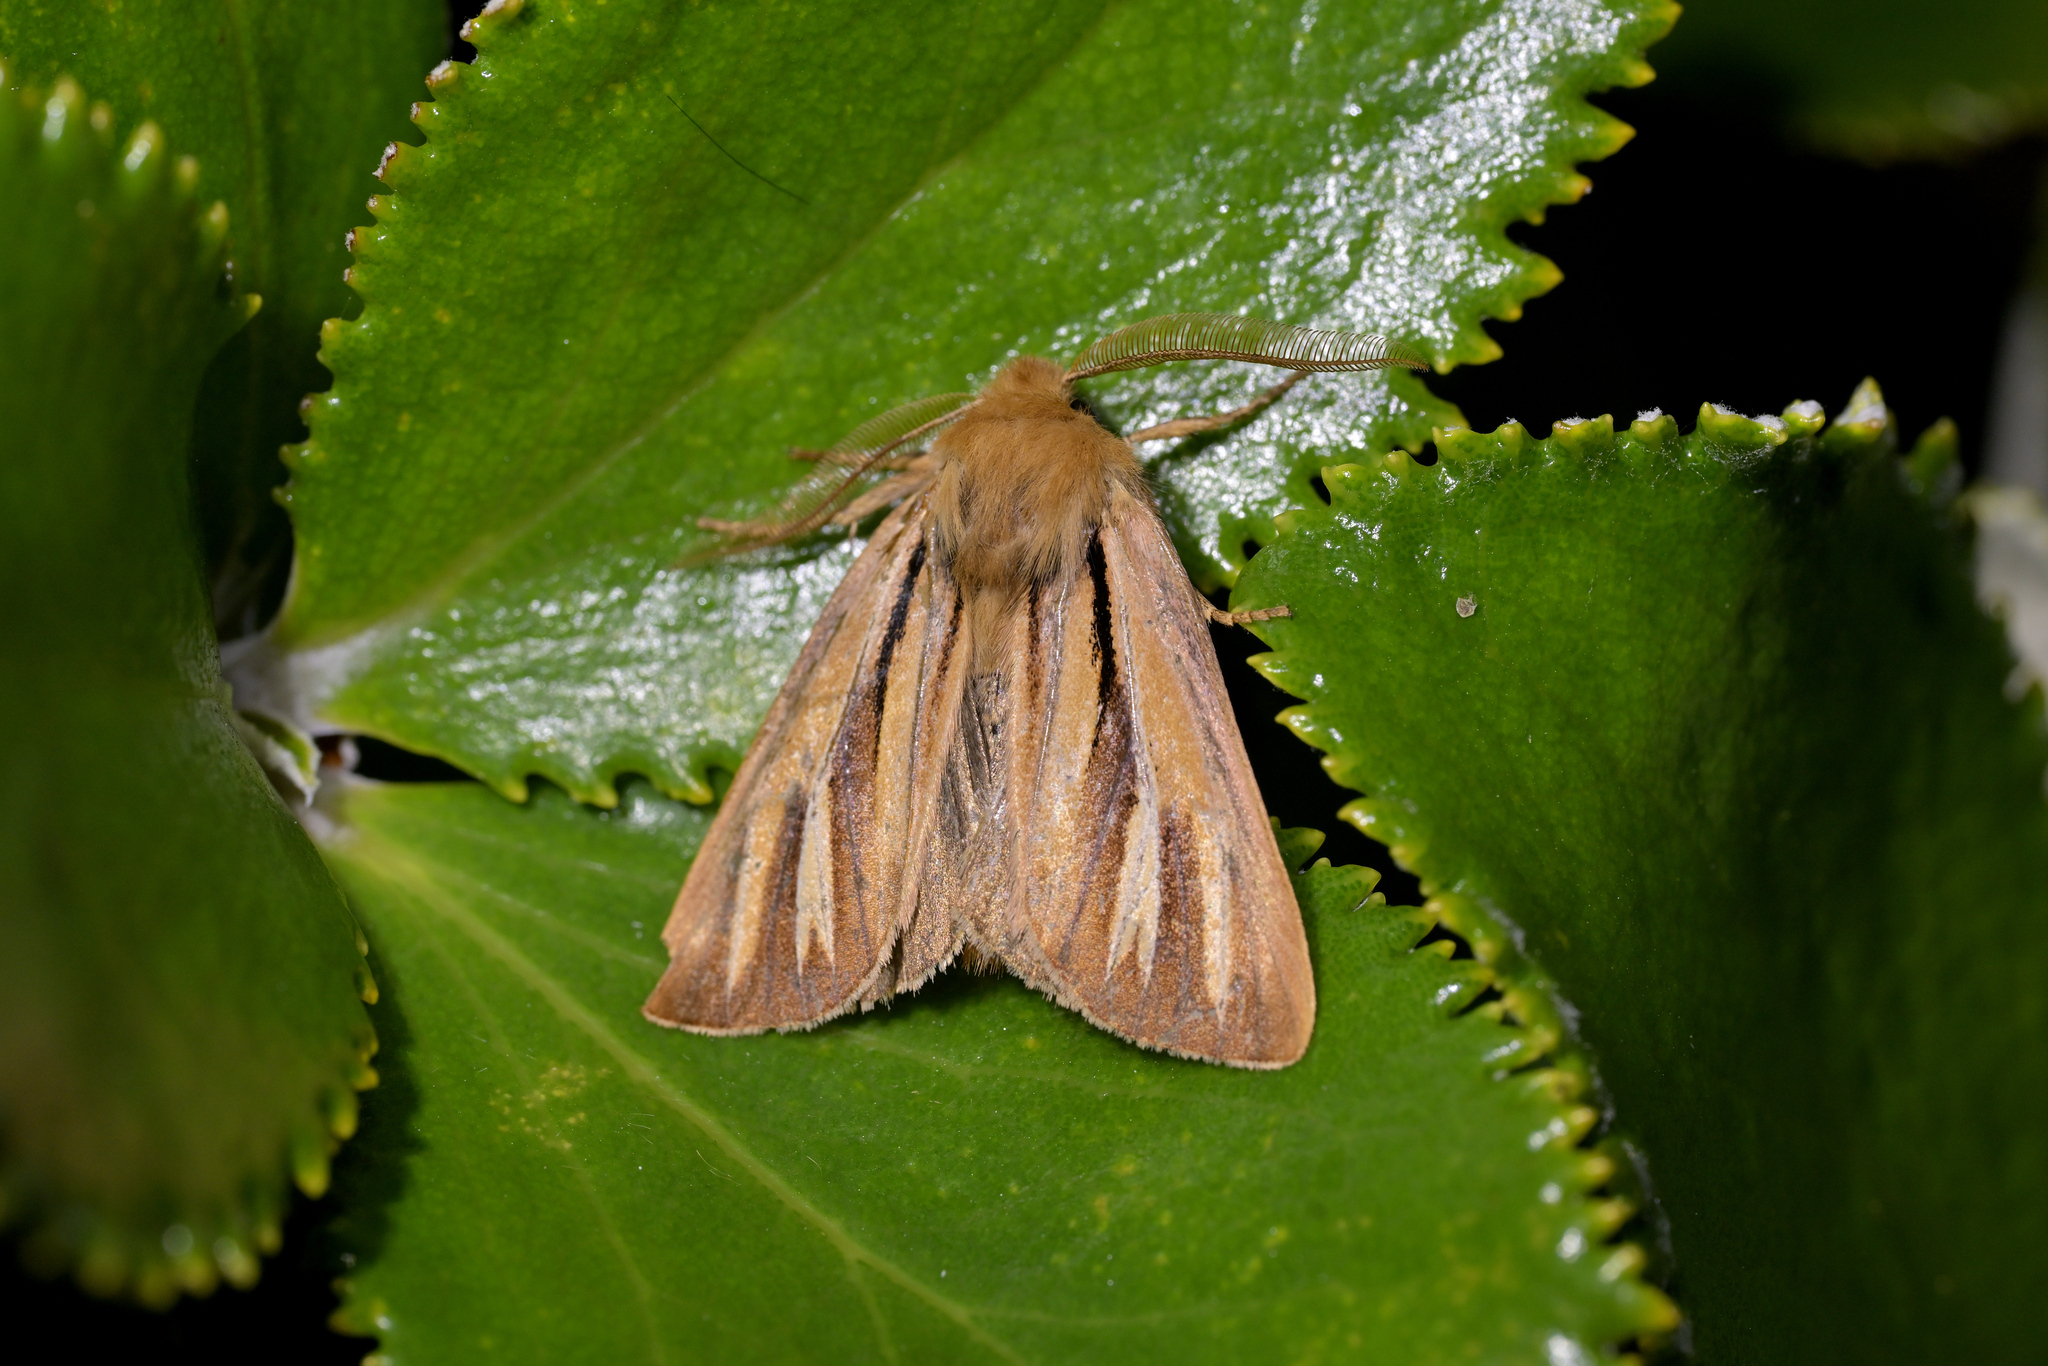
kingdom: Animalia
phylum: Arthropoda
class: Insecta
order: Lepidoptera
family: Noctuidae
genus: Ichneutica
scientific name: Ichneutica caraunias
